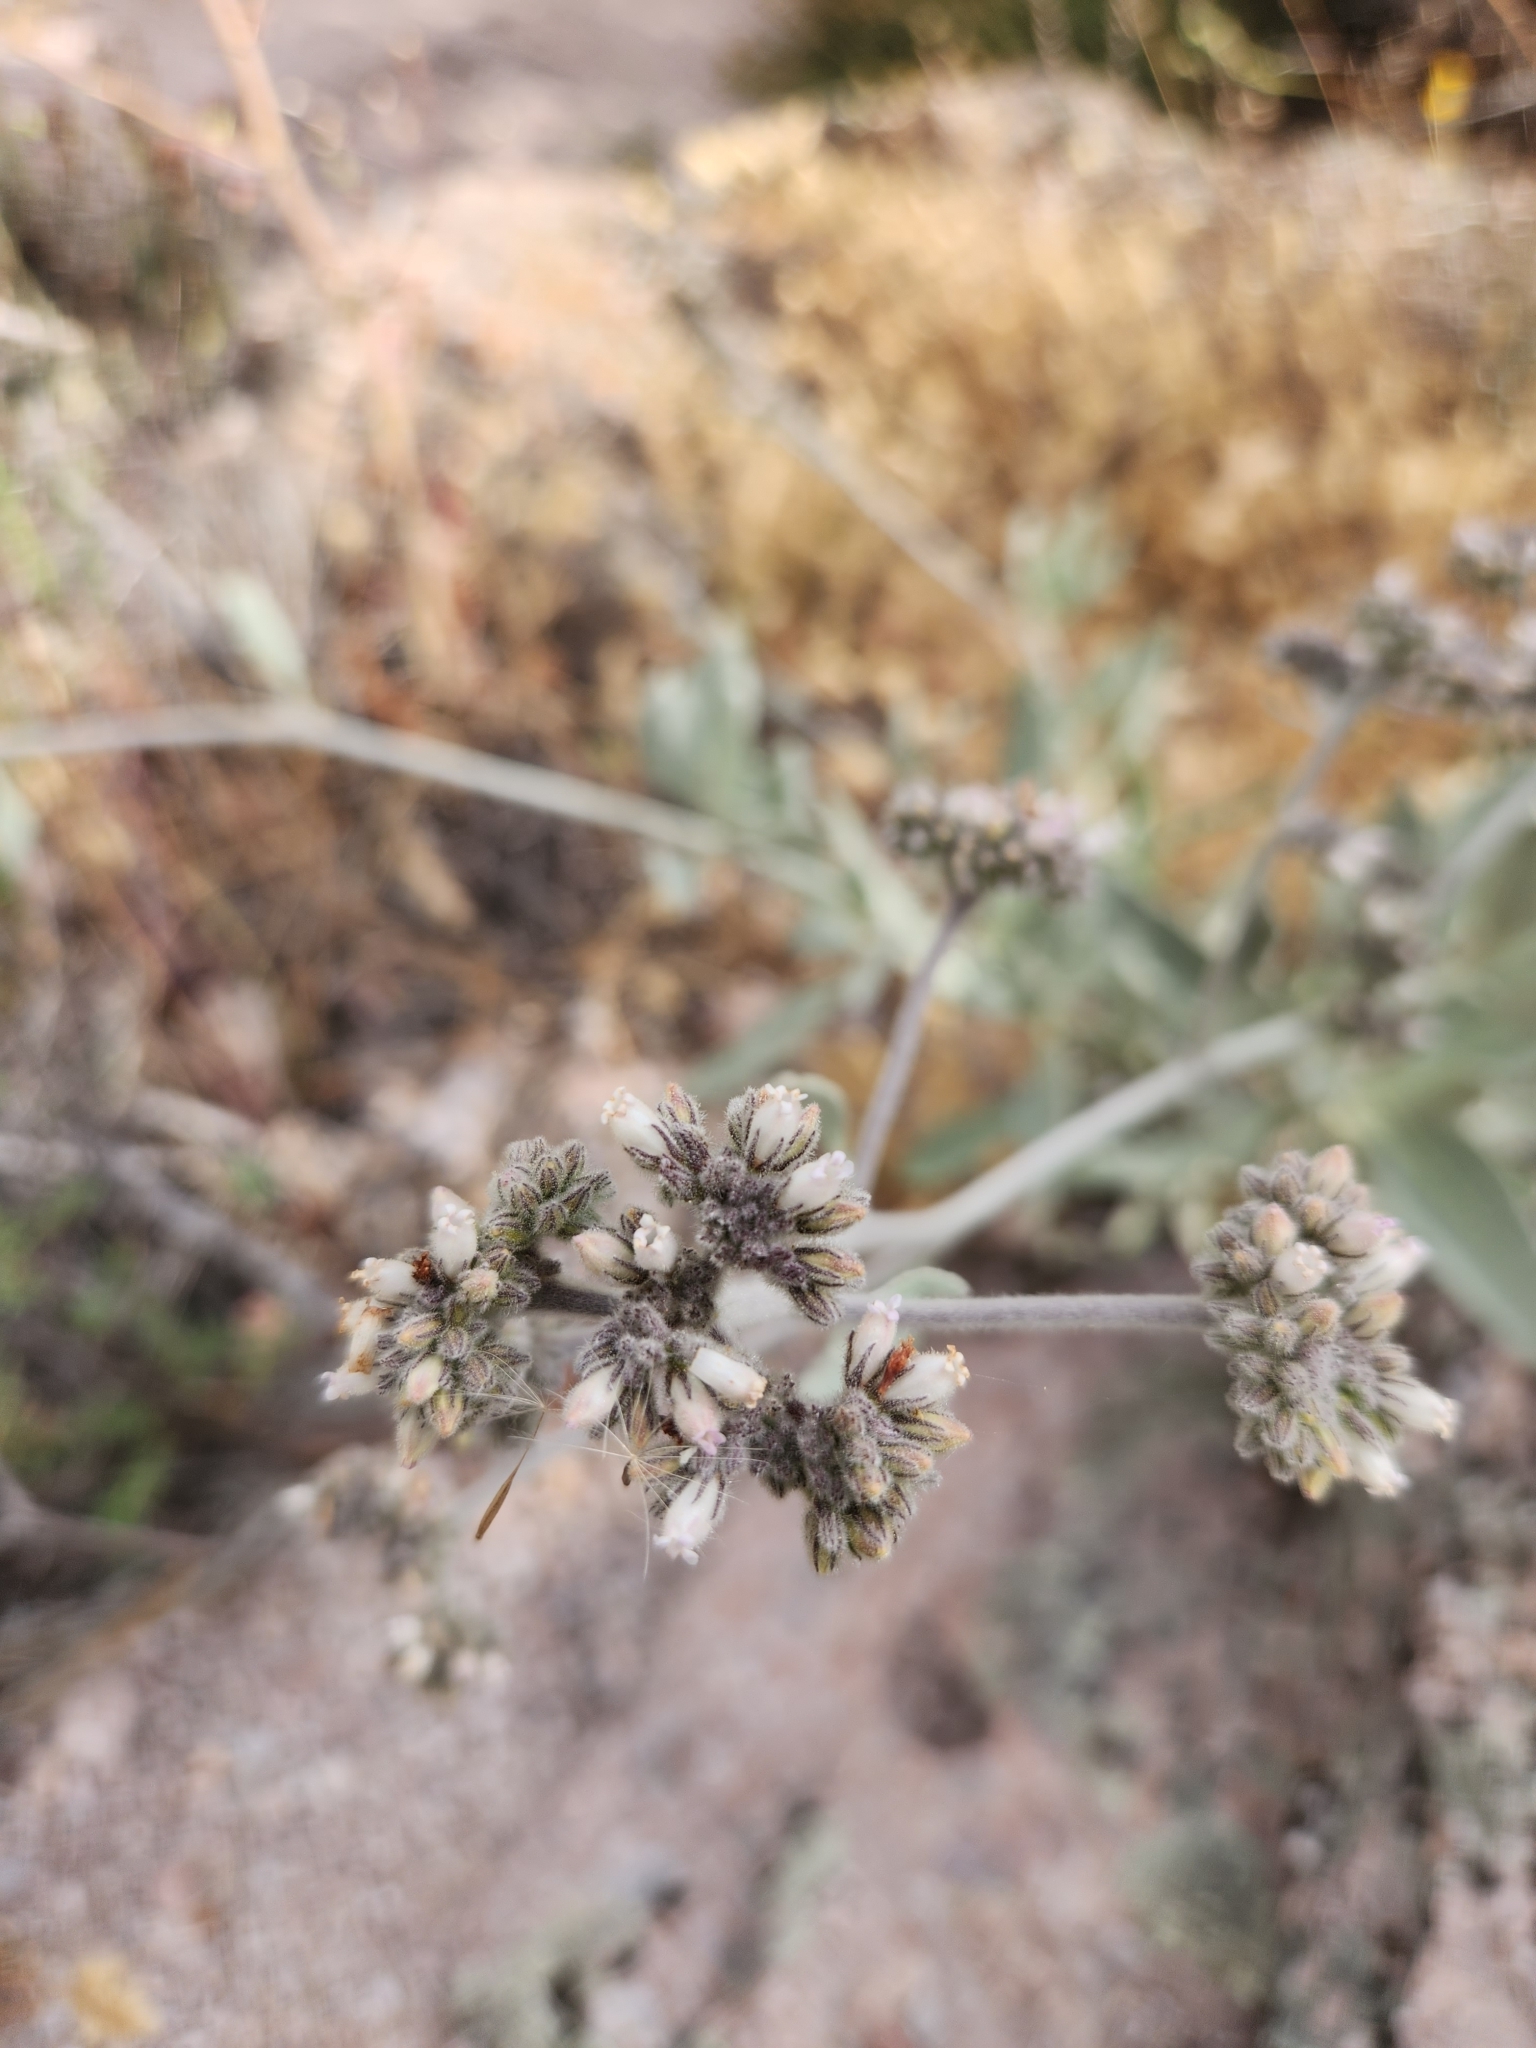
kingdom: Plantae
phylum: Tracheophyta
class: Magnoliopsida
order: Boraginales
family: Namaceae
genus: Eriodictyon
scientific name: Eriodictyon tomentosum
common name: Woolly yerba-santa
